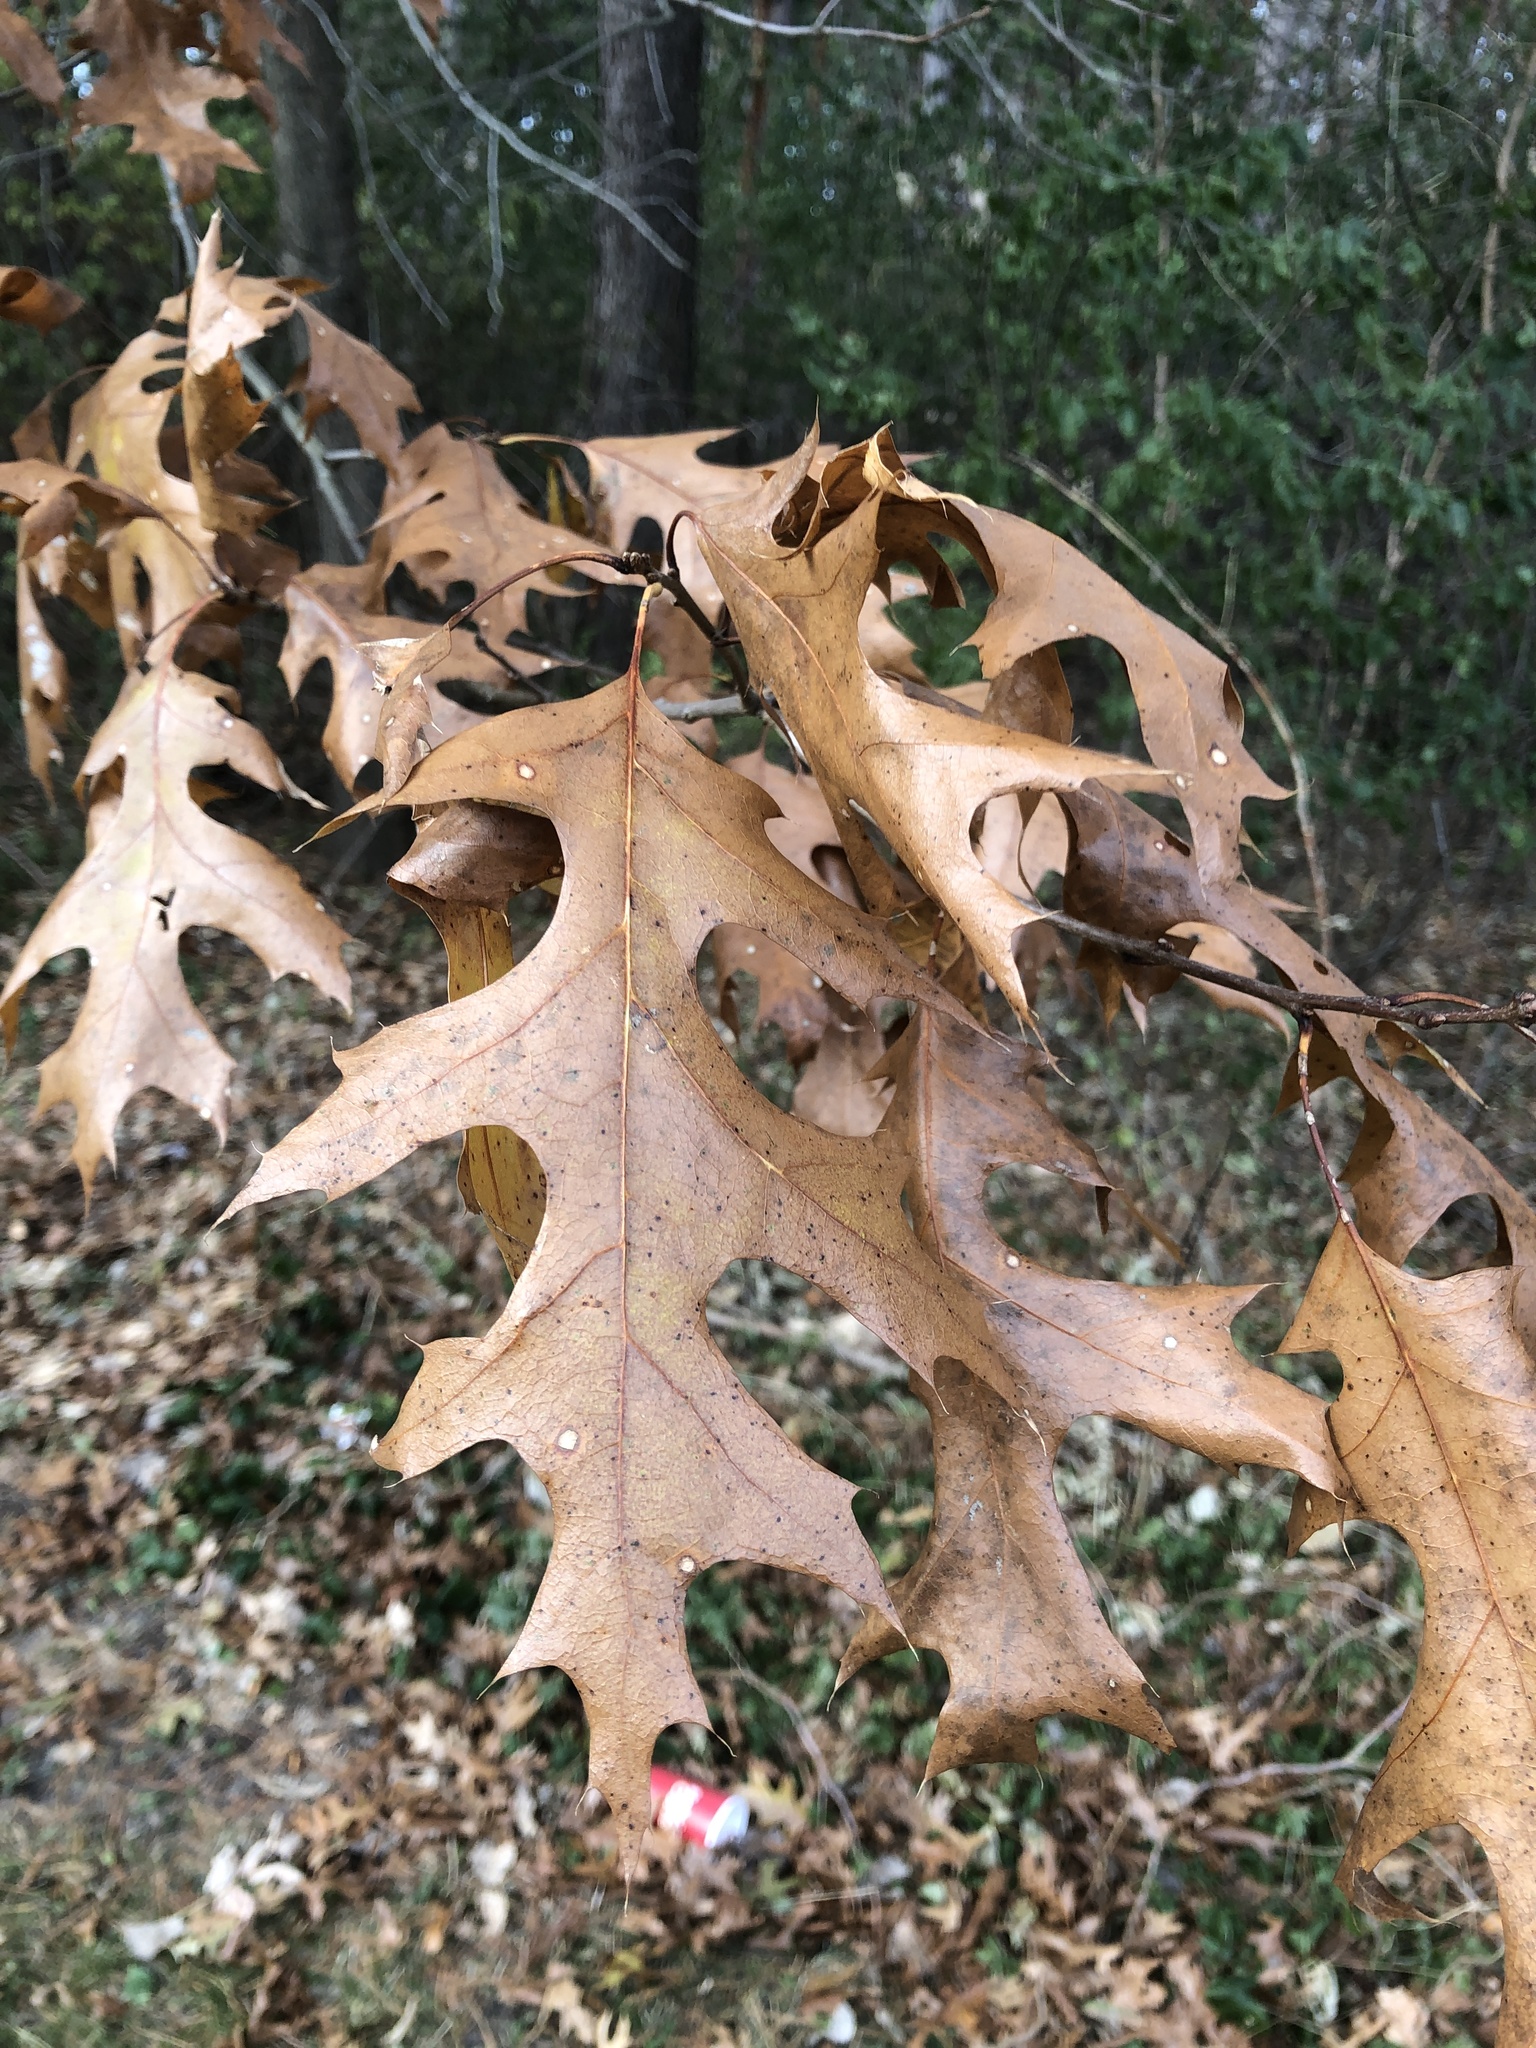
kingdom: Plantae
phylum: Tracheophyta
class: Magnoliopsida
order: Fagales
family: Fagaceae
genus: Quercus
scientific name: Quercus ellipsoidalis
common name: Hill's oak
